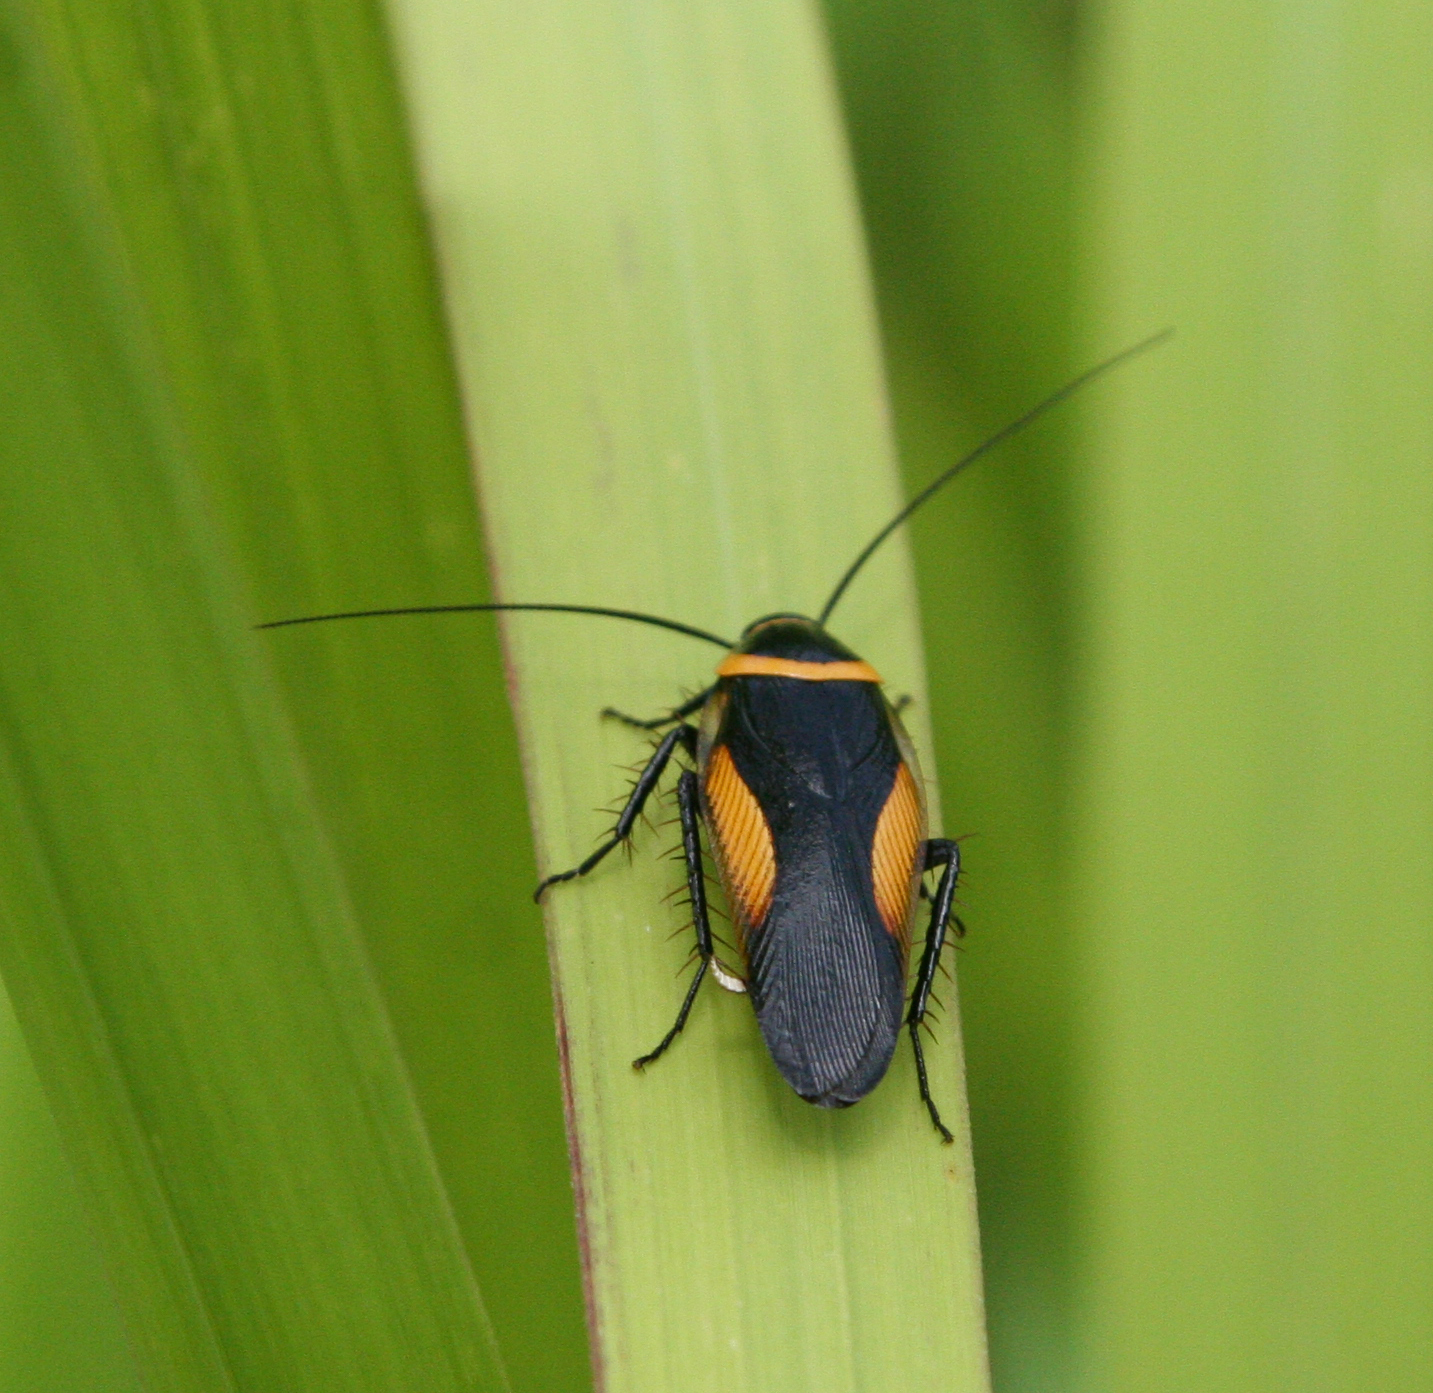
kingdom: Animalia
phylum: Arthropoda
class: Insecta
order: Blattodea
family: Ectobiidae
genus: Hemithyrsocera
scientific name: Hemithyrsocera vittata
